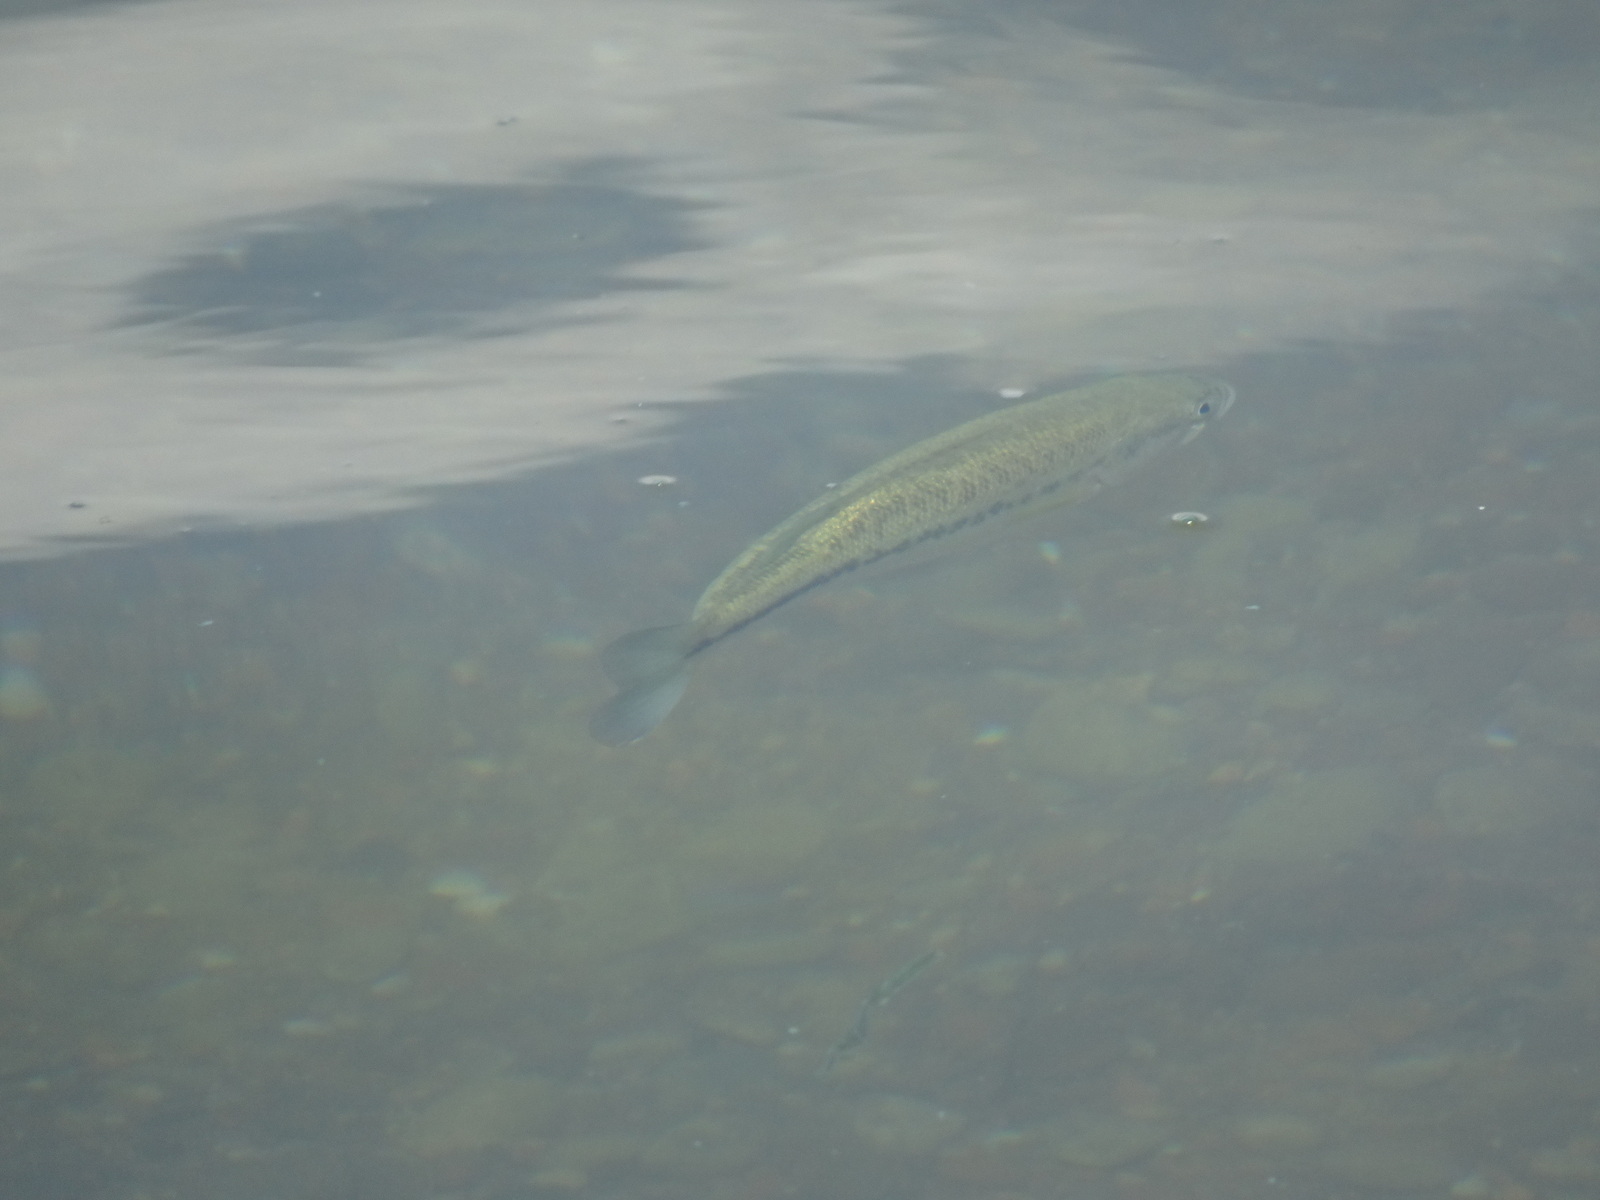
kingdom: Animalia
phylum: Chordata
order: Perciformes
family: Centrarchidae
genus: Micropterus
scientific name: Micropterus
